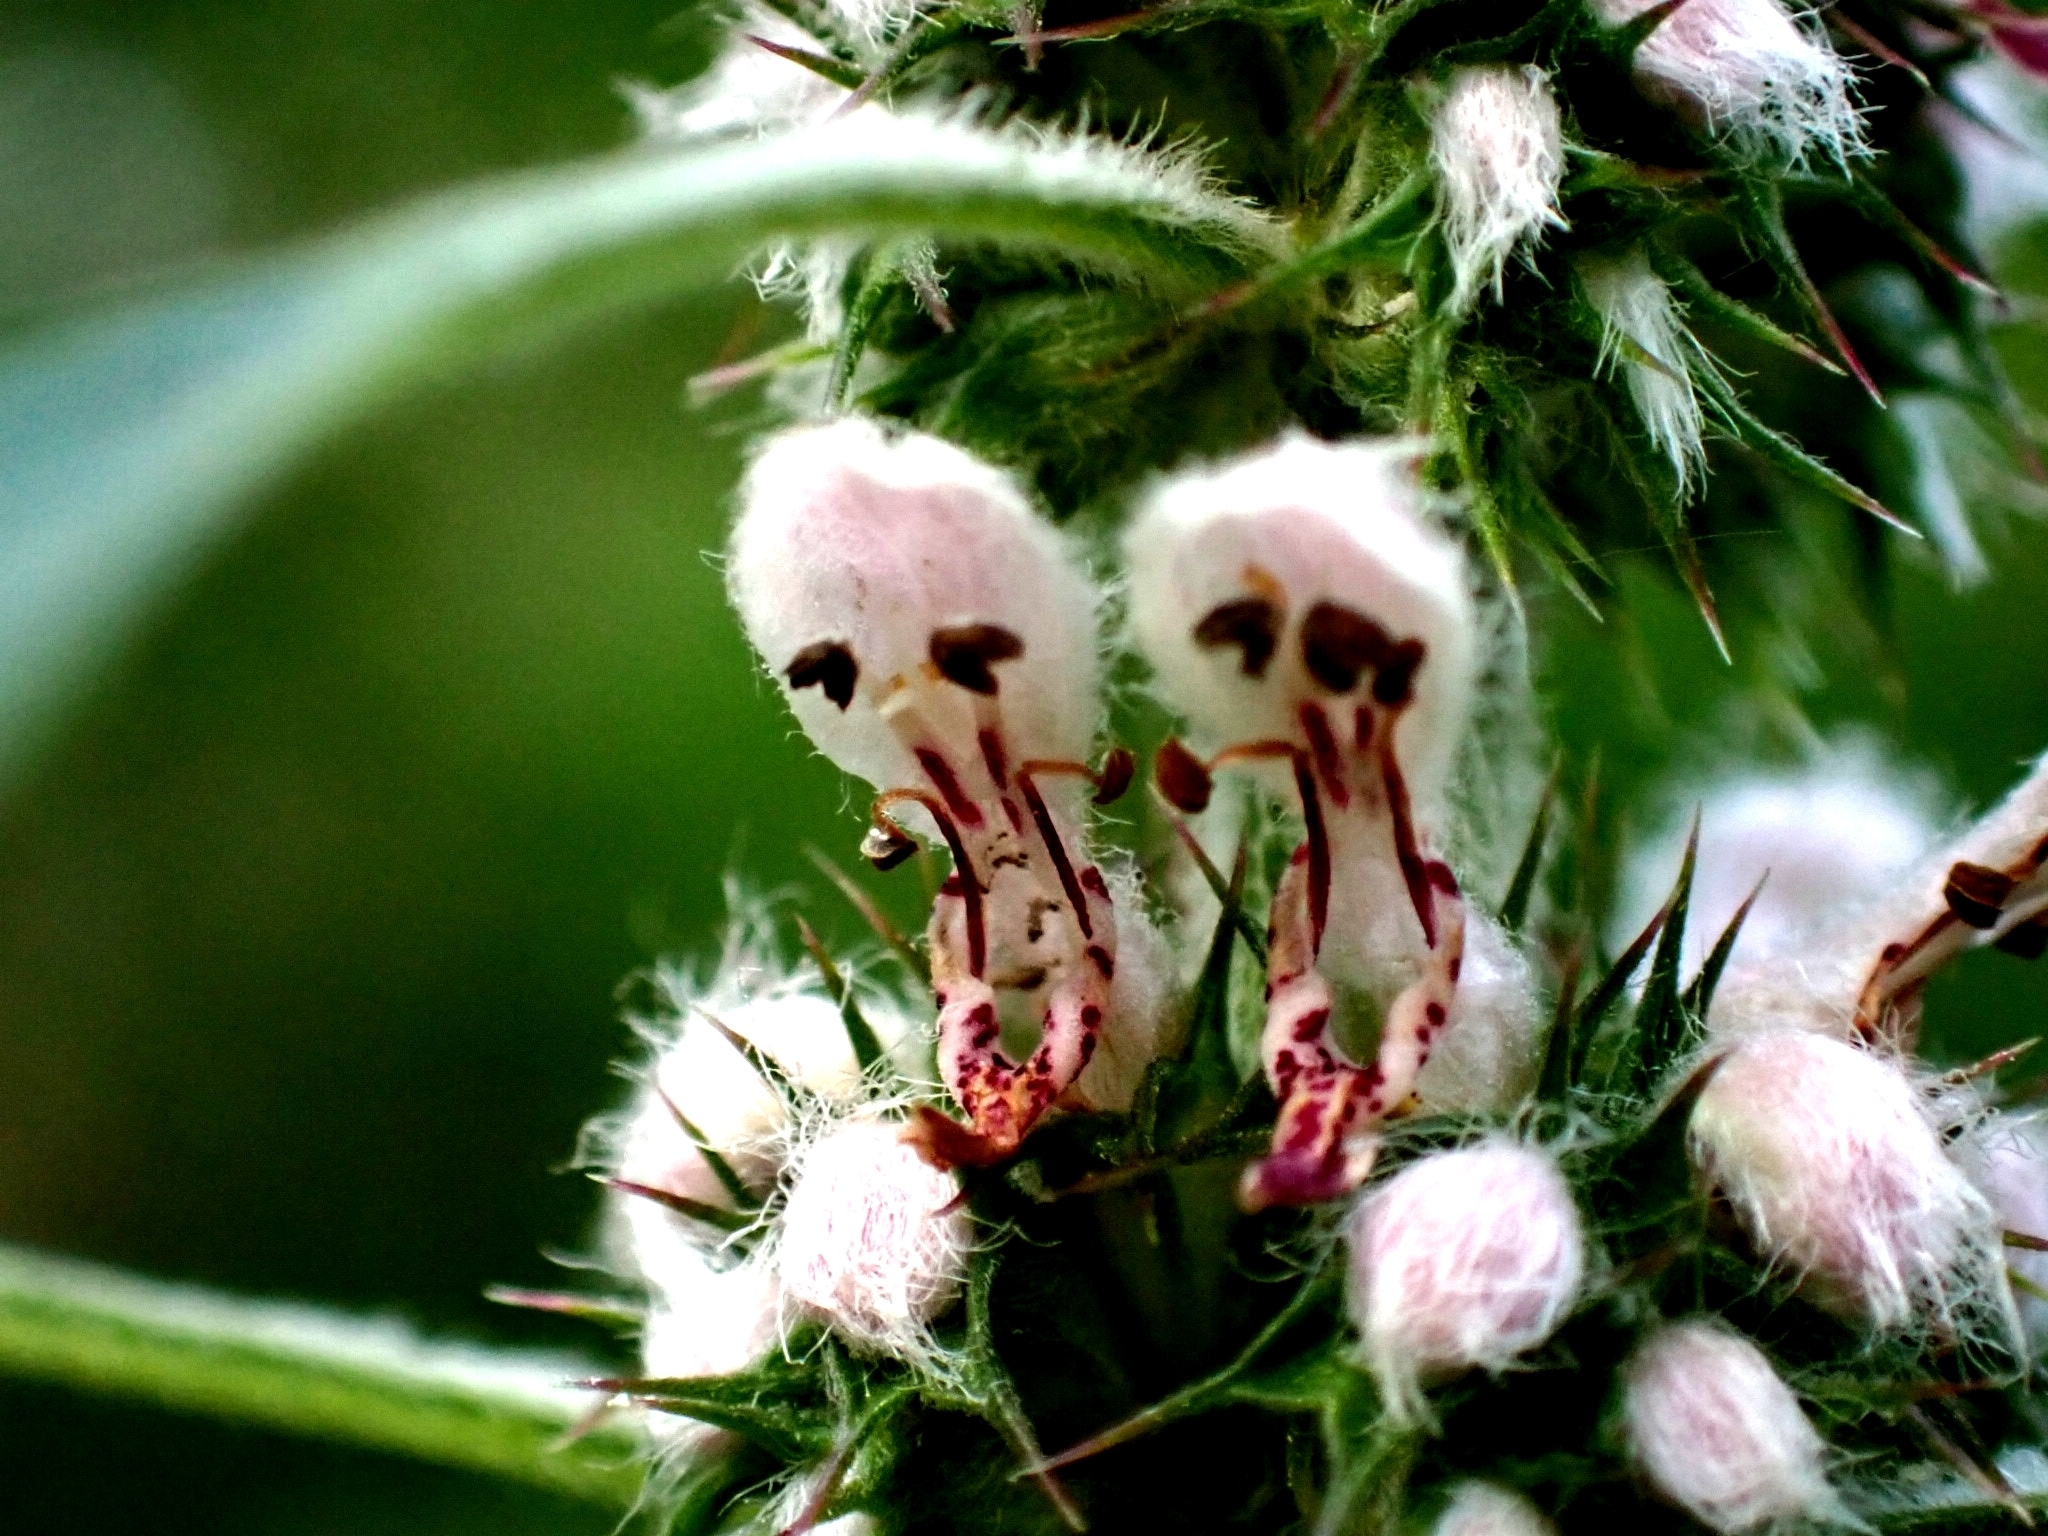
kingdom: Plantae
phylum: Tracheophyta
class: Magnoliopsida
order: Lamiales
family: Lamiaceae
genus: Leonurus
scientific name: Leonurus quinquelobatus
